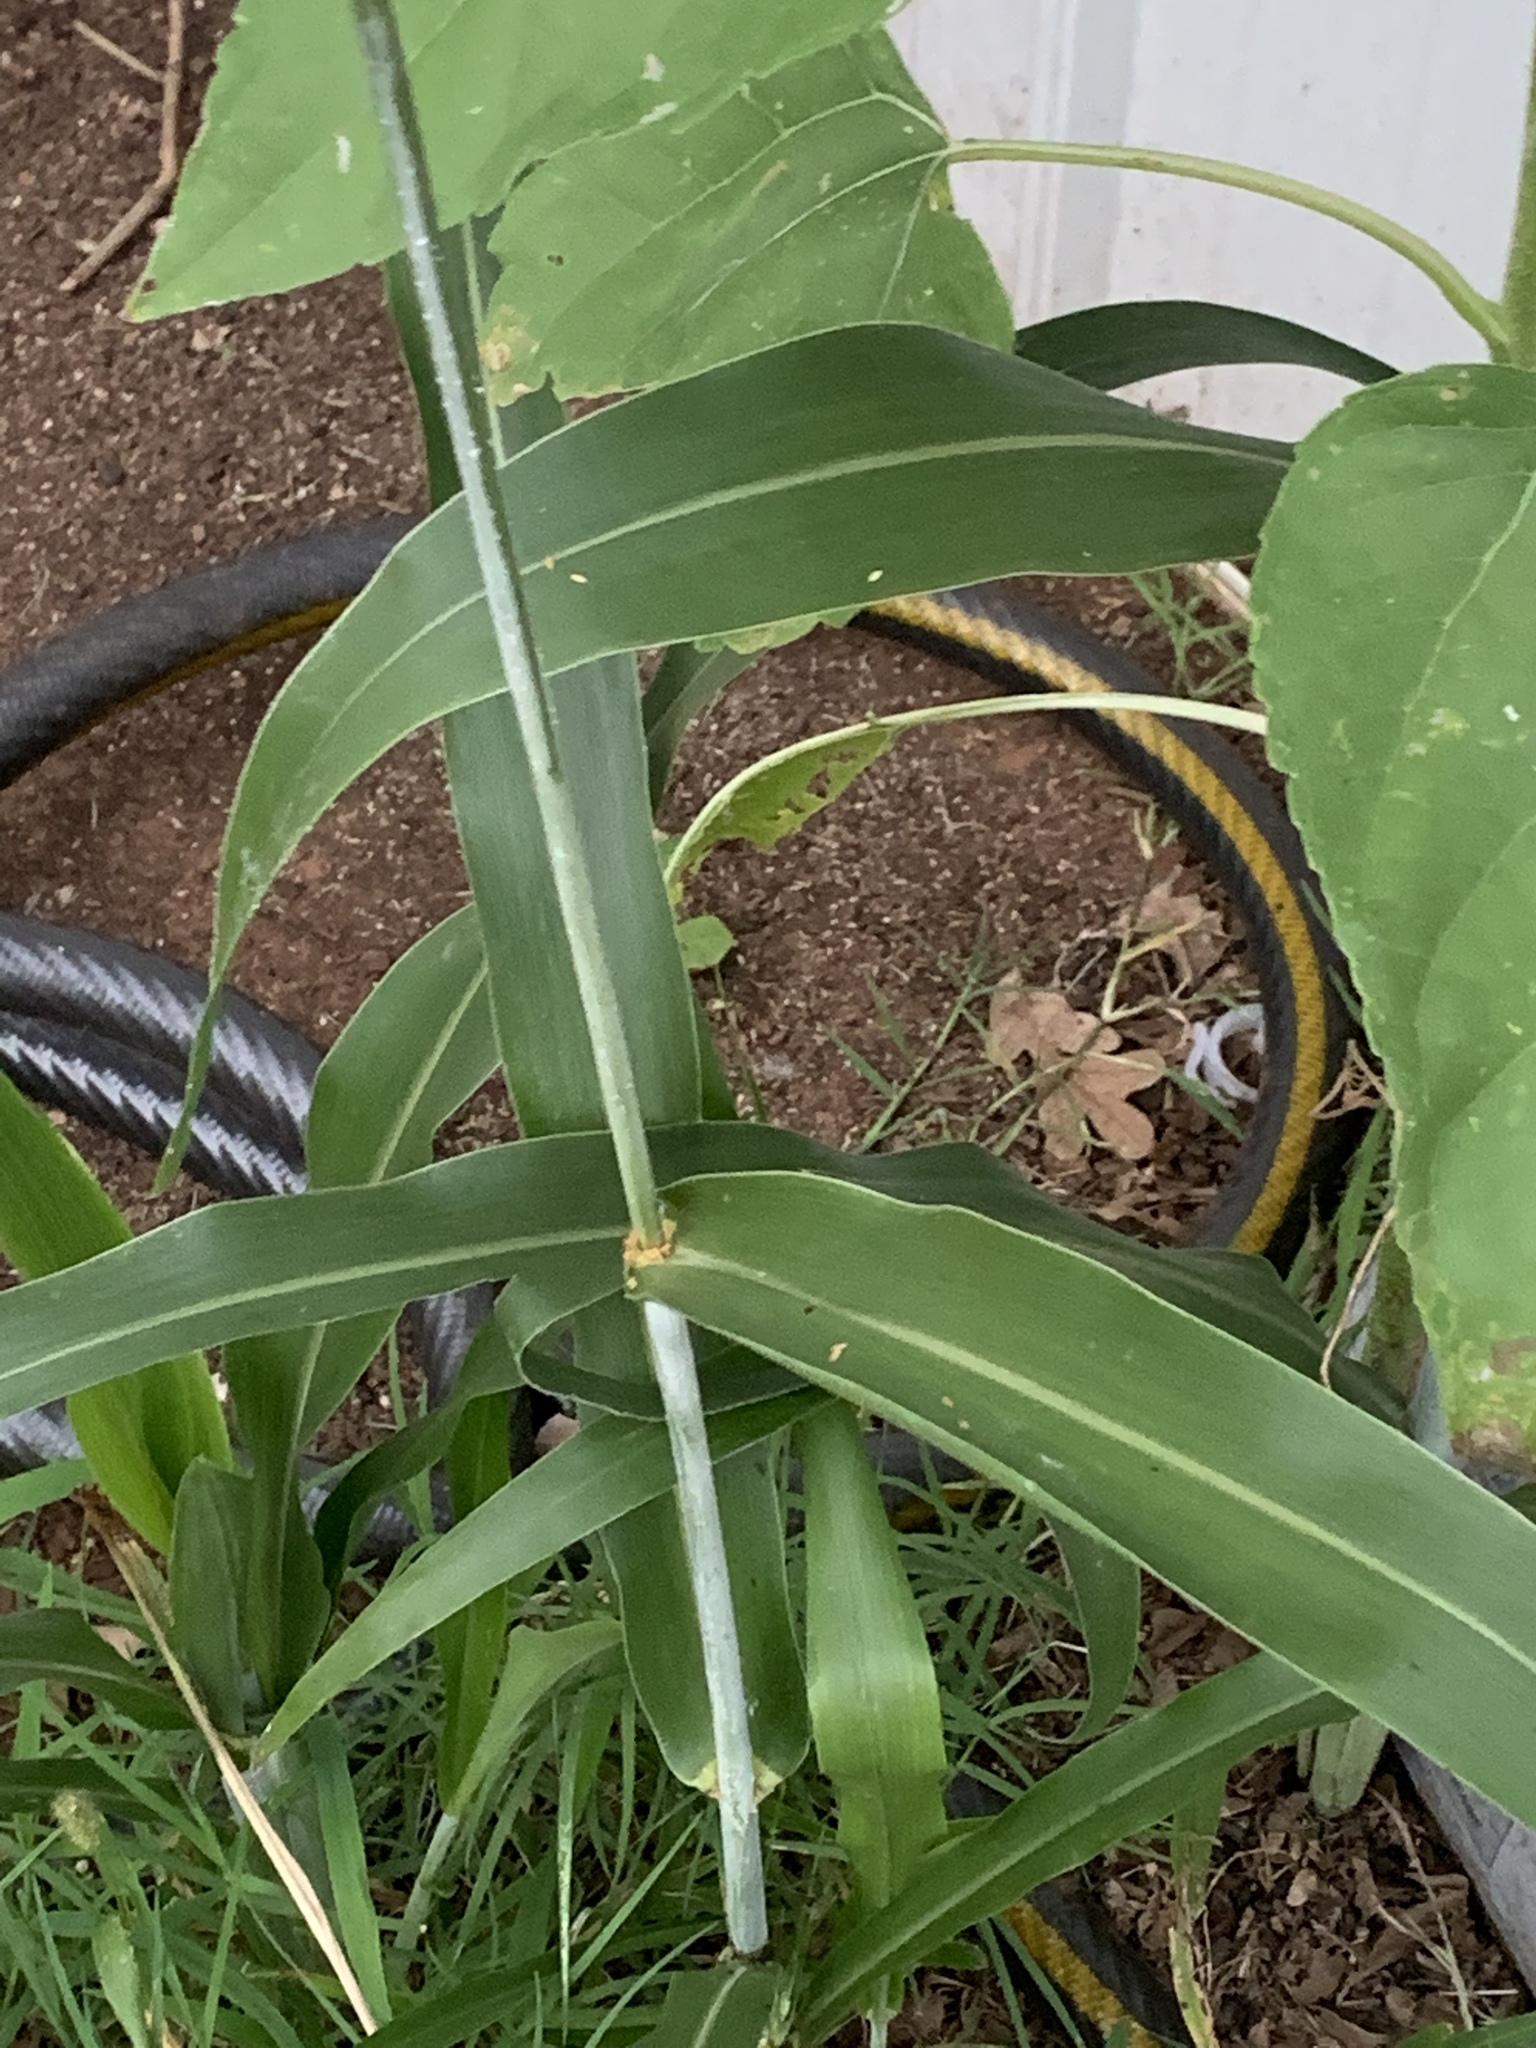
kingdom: Plantae
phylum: Tracheophyta
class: Liliopsida
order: Poales
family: Poaceae
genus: Sorghum
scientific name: Sorghum bicolor
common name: Sorghum
